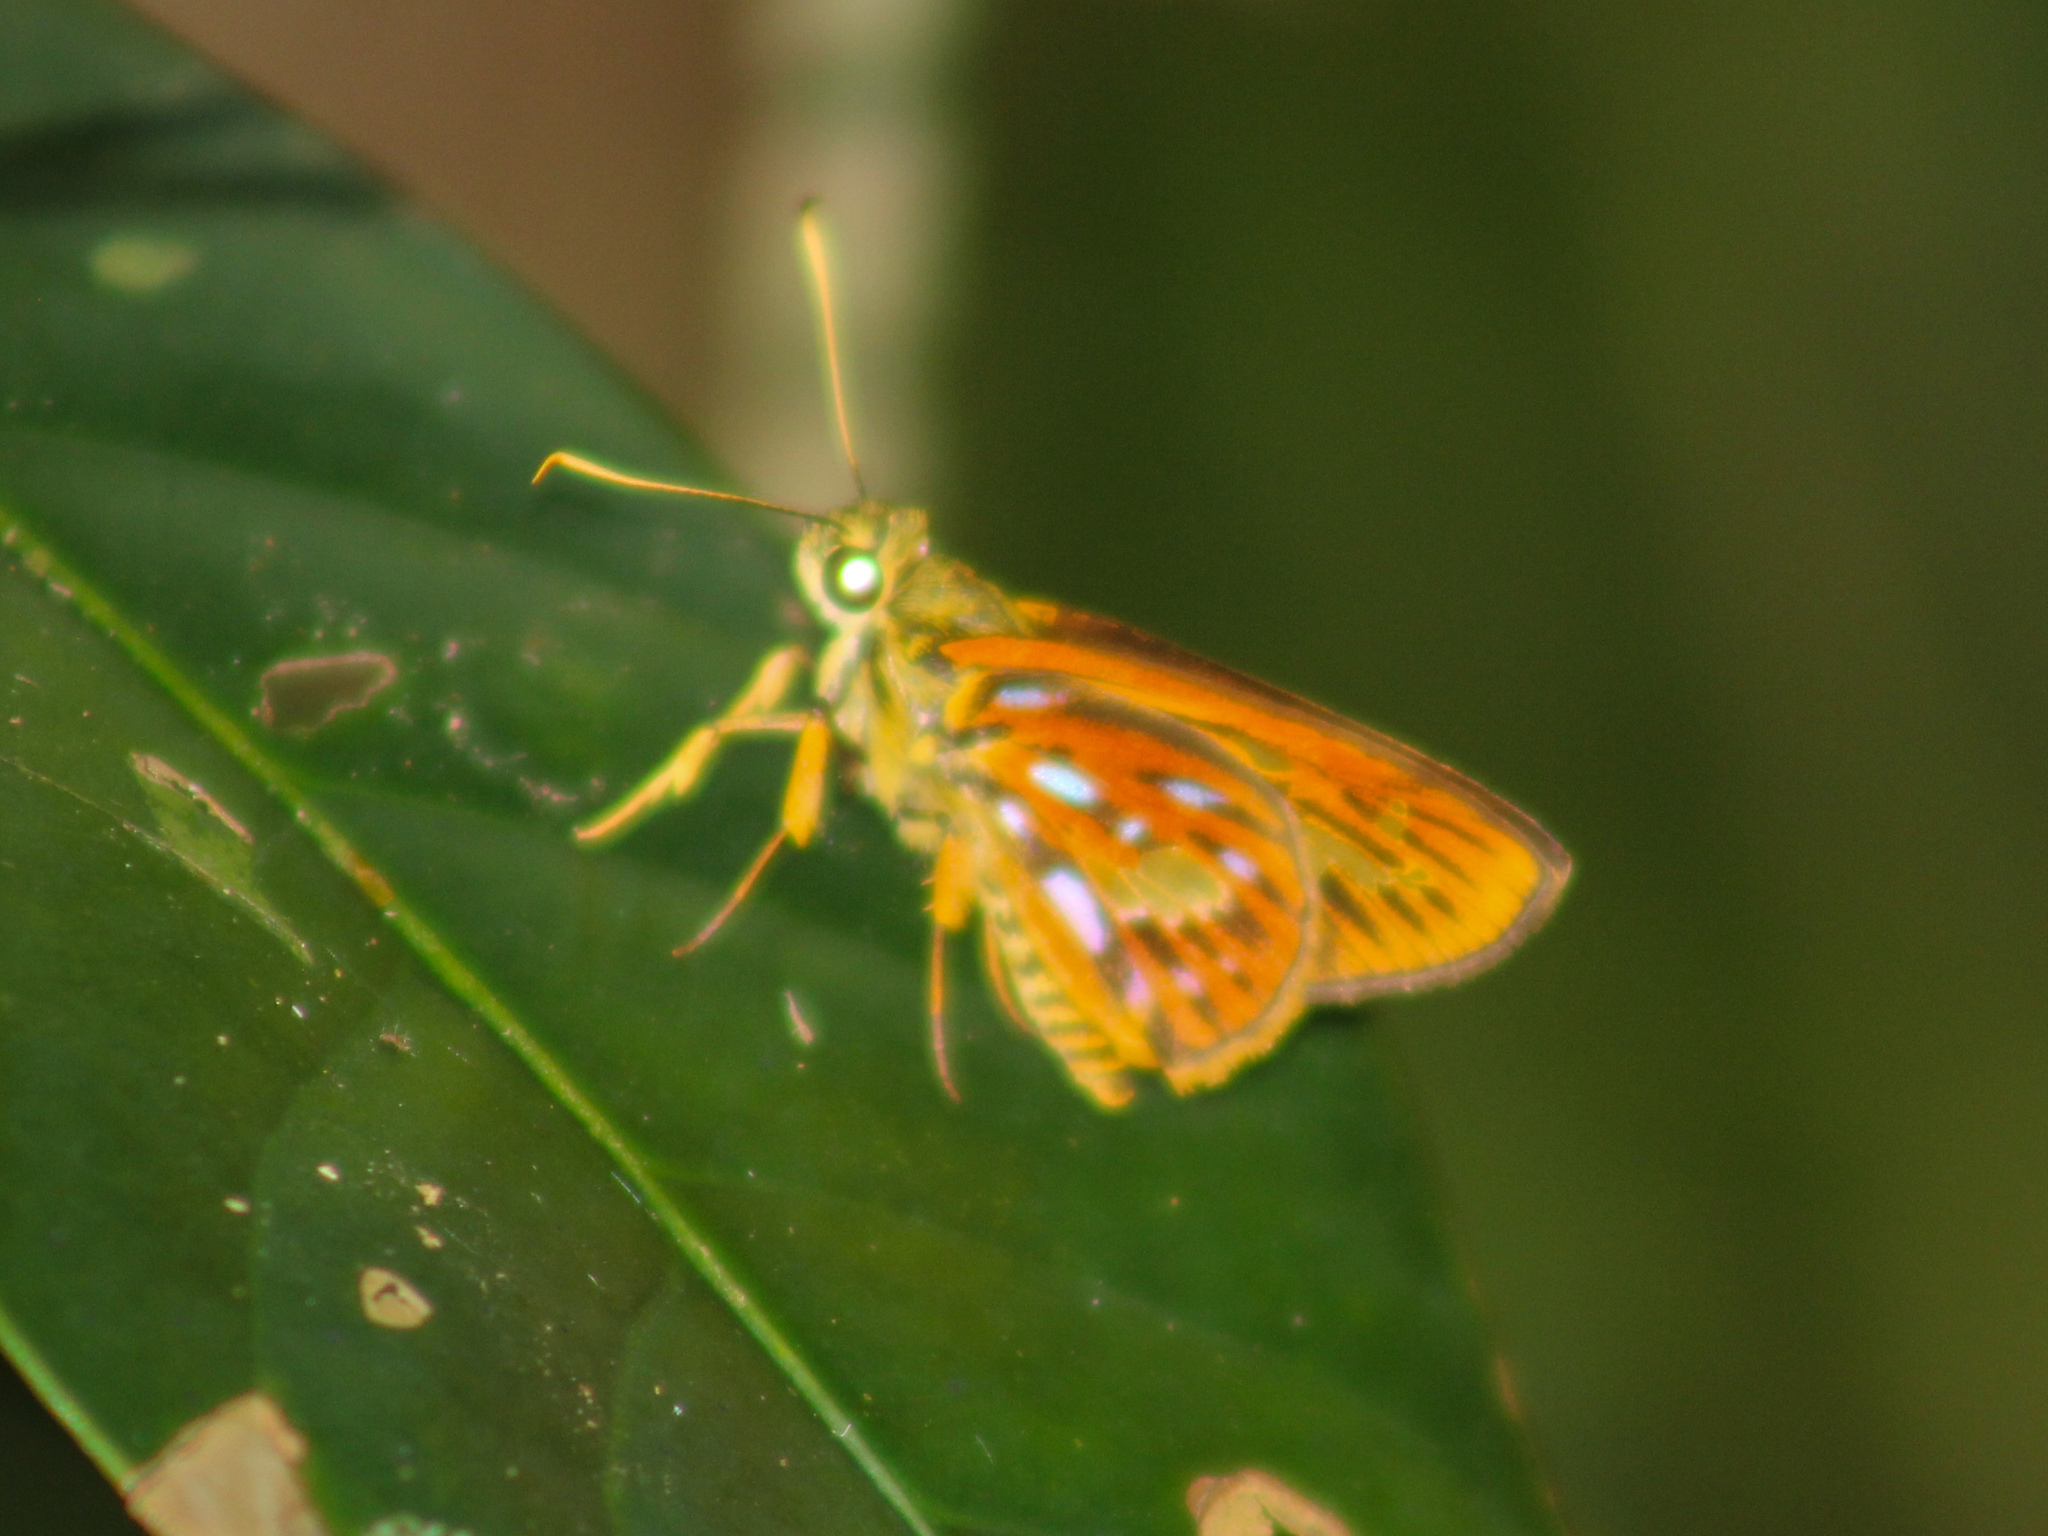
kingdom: Animalia
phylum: Arthropoda
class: Insecta
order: Lepidoptera
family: Hesperiidae
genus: Pyroneura
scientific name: Pyroneura margherita
